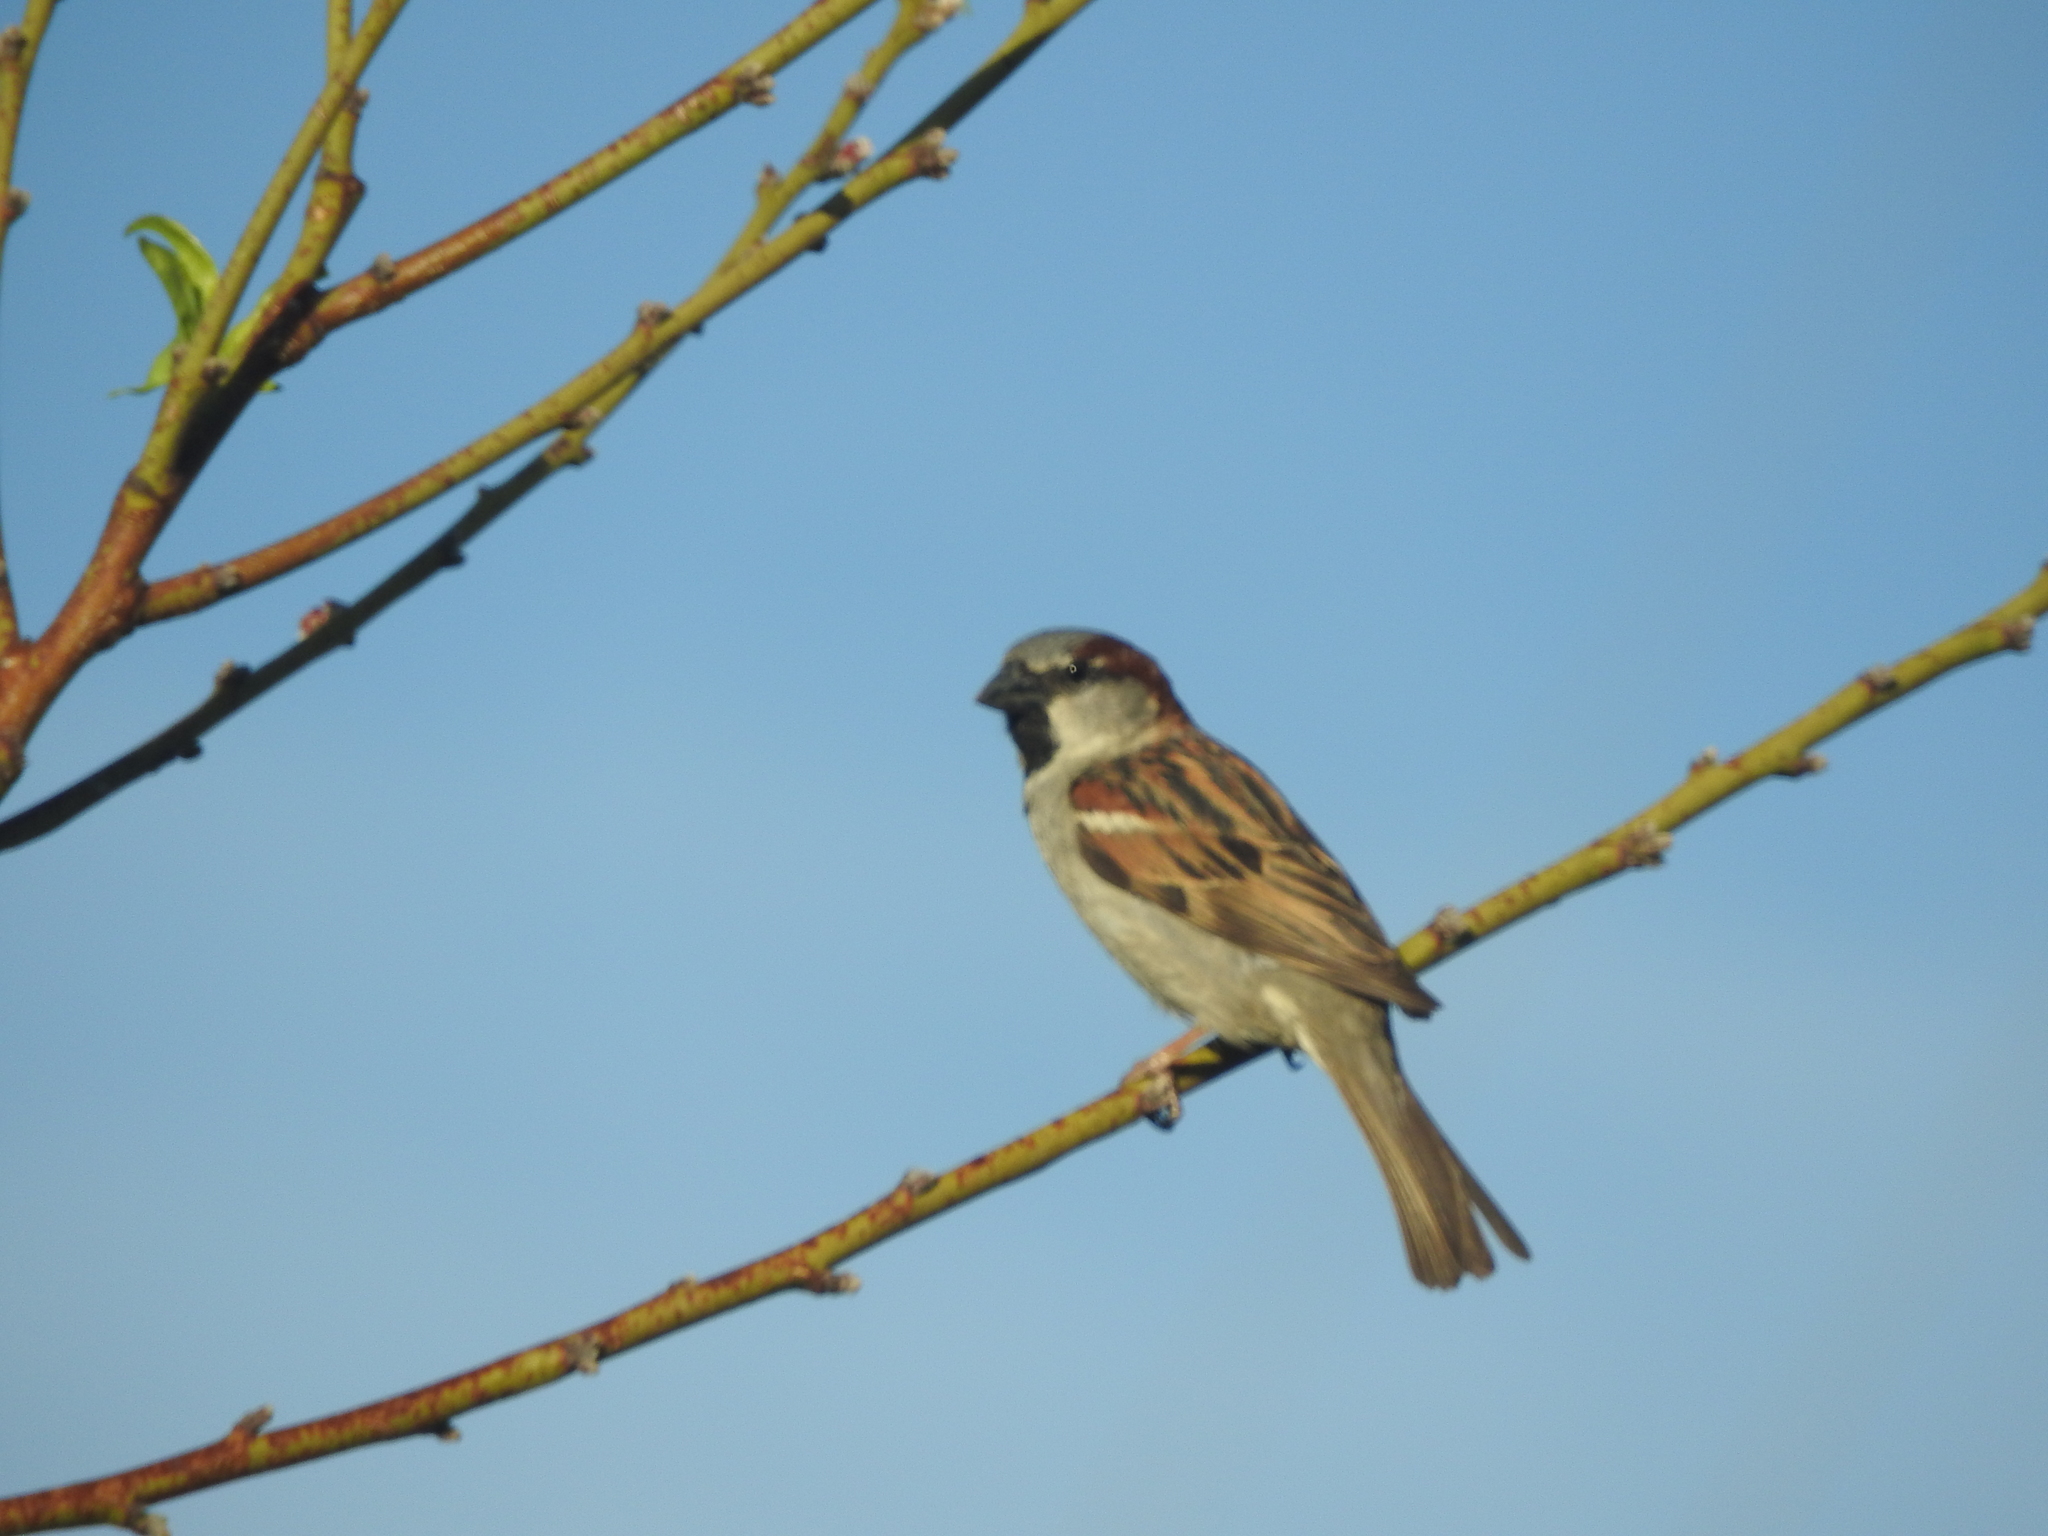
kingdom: Animalia
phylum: Chordata
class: Aves
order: Passeriformes
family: Passeridae
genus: Passer
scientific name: Passer domesticus
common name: House sparrow
